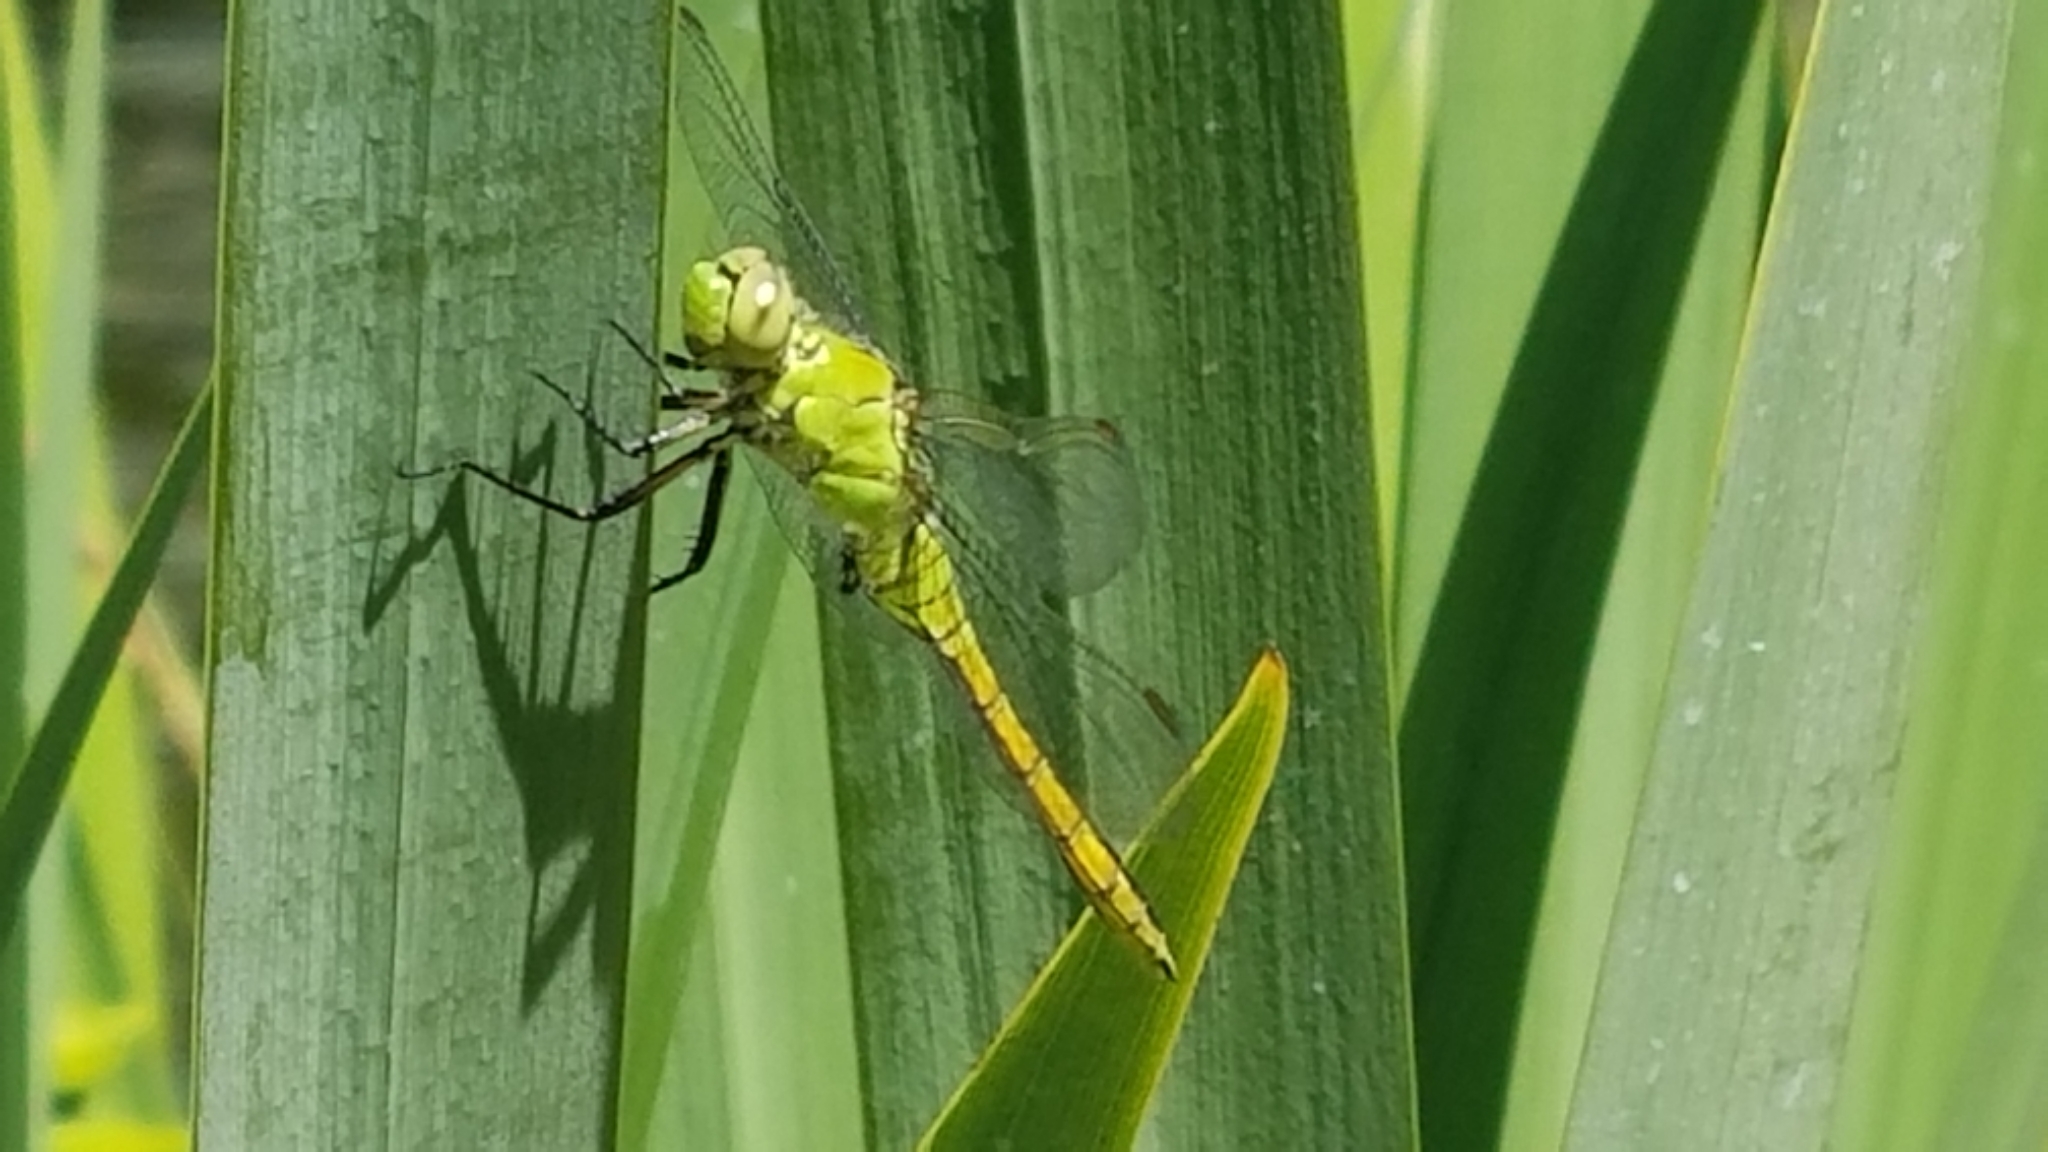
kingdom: Animalia
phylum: Arthropoda
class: Insecta
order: Odonata
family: Libellulidae
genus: Erythemis
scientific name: Erythemis collocata
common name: Western pondhawk
